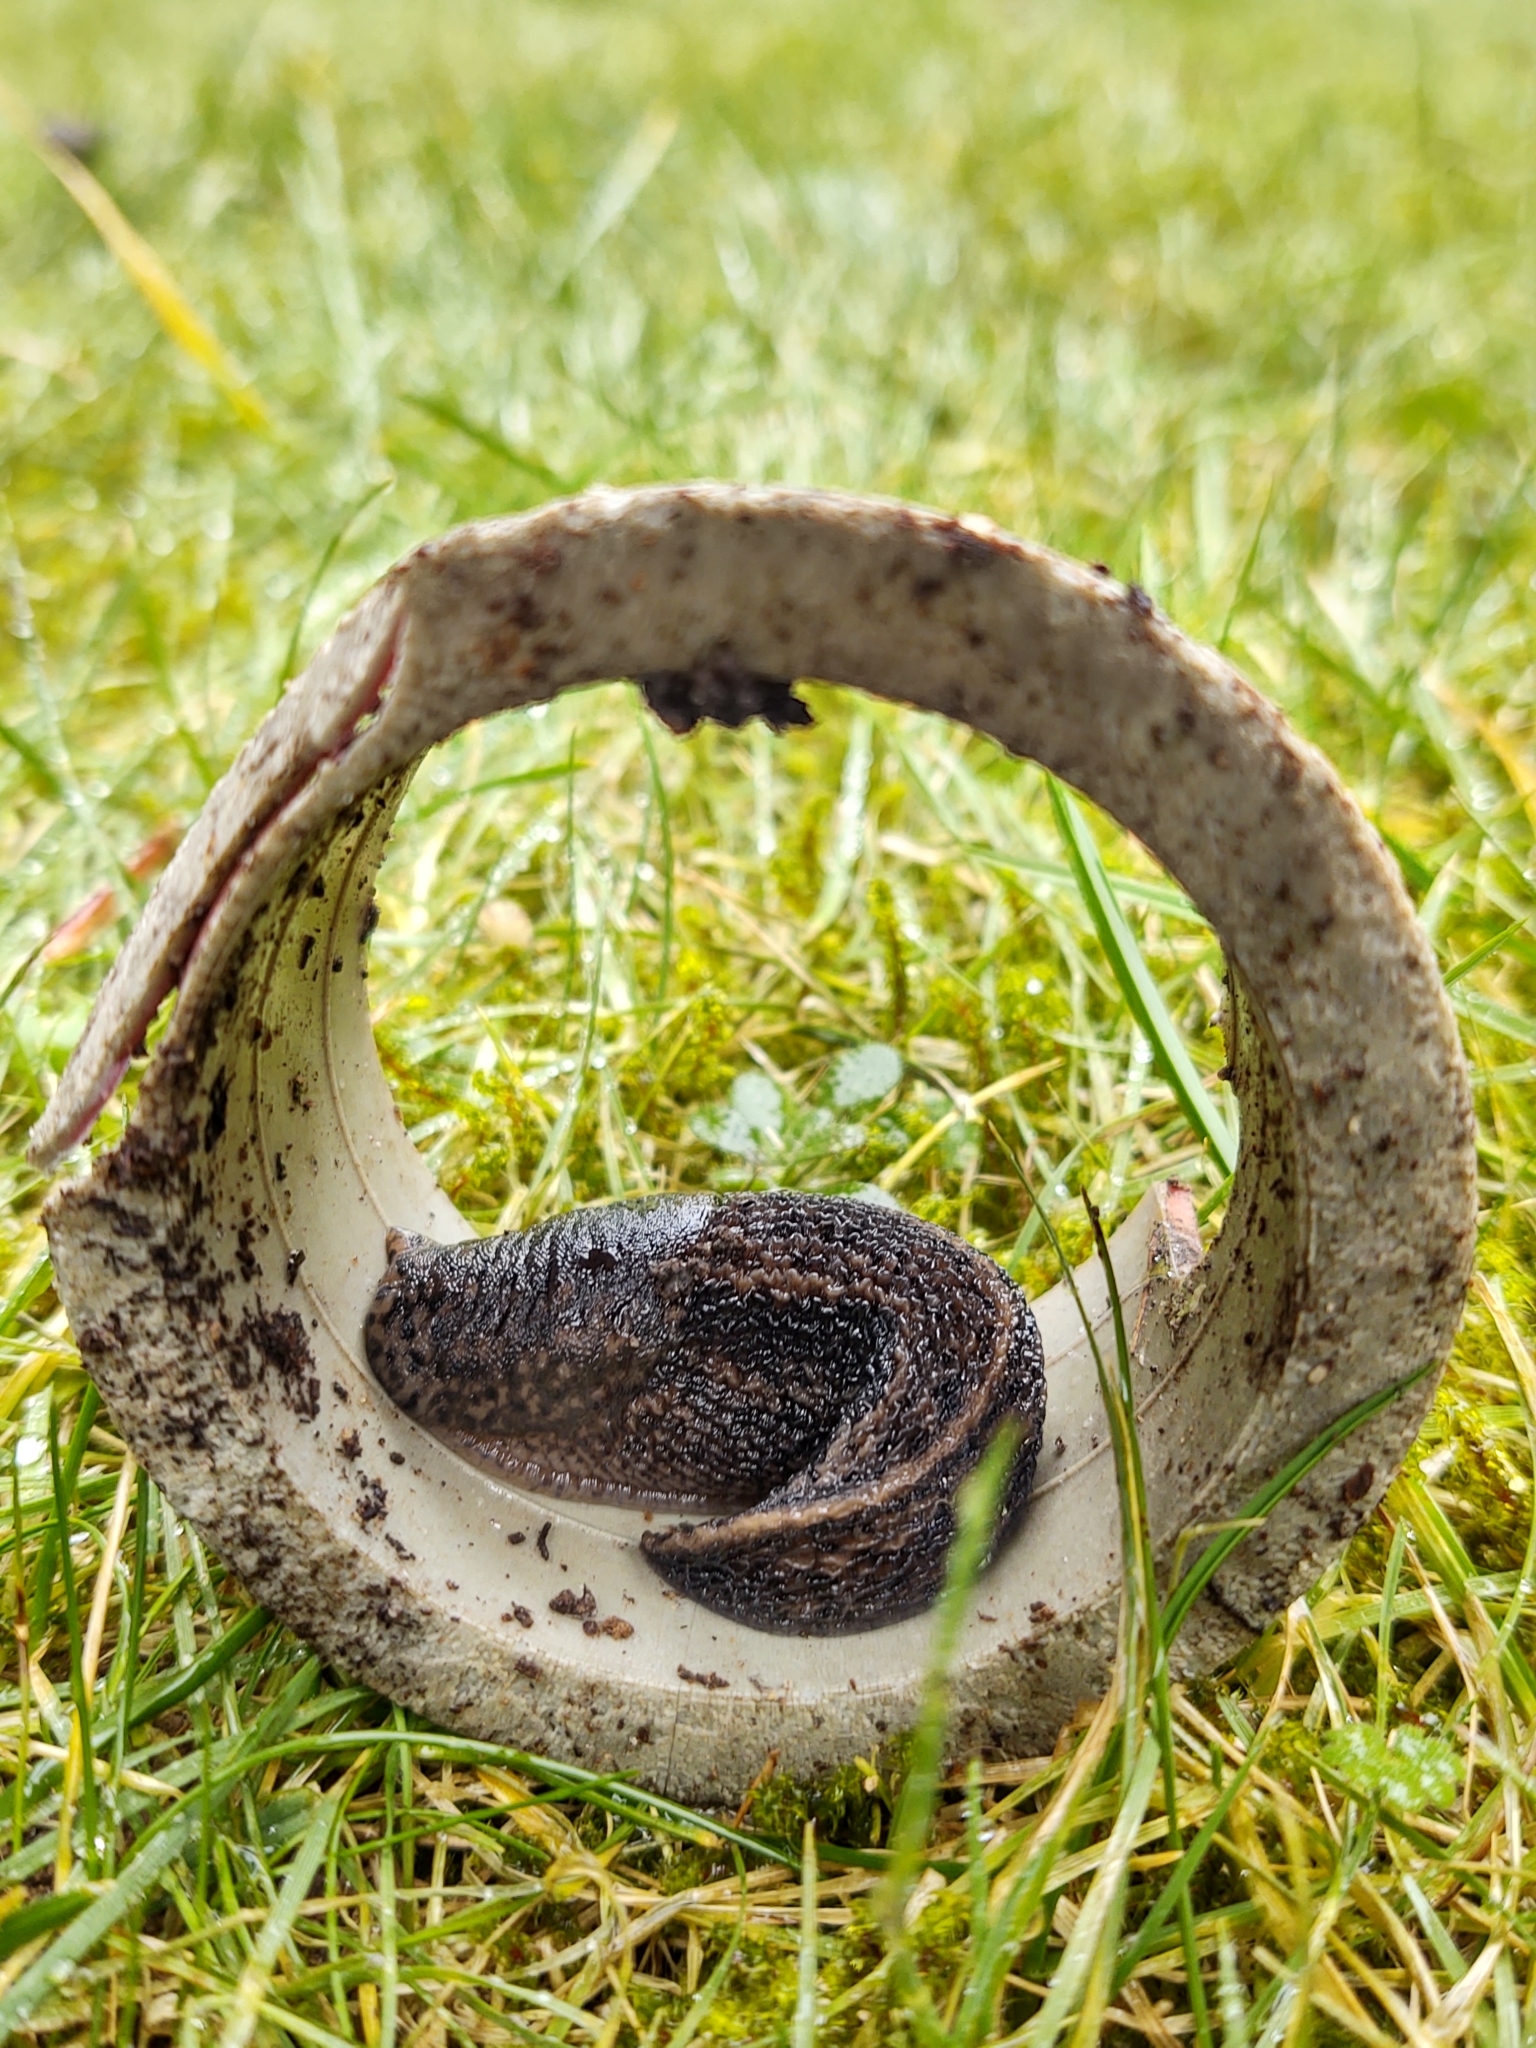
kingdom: Animalia
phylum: Mollusca
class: Gastropoda
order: Stylommatophora
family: Limacidae
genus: Limax
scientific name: Limax maximus
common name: Great grey slug
